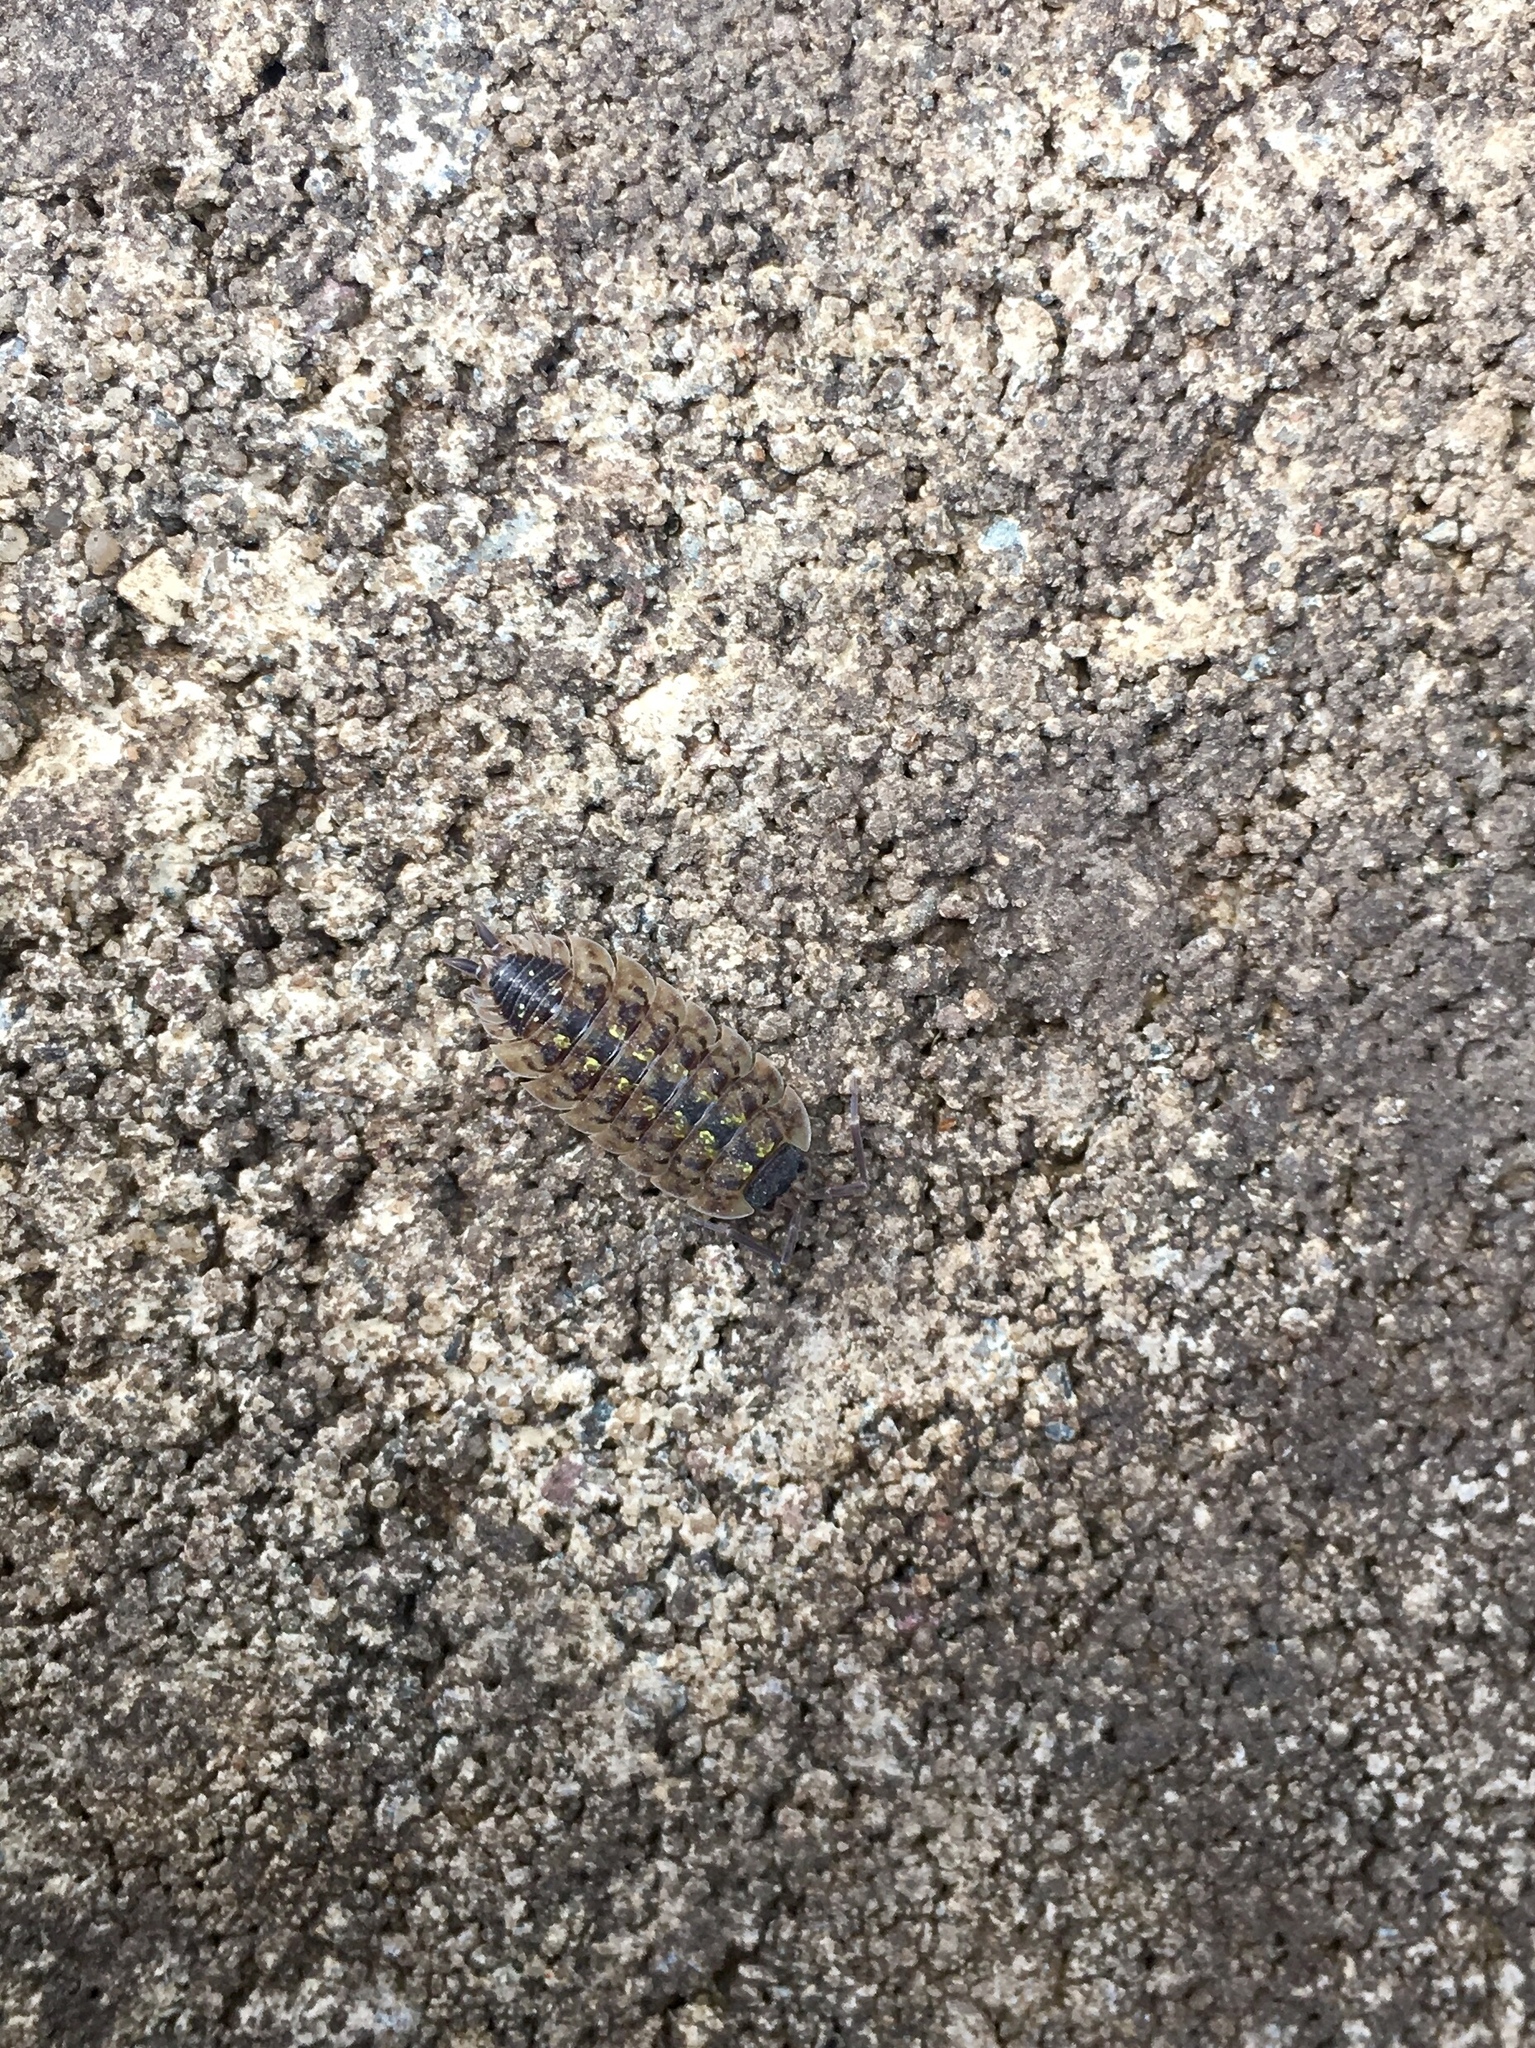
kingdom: Animalia
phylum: Arthropoda
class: Malacostraca
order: Isopoda
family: Porcellionidae
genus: Porcellio
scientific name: Porcellio spinicornis
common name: Painted woodlouse
